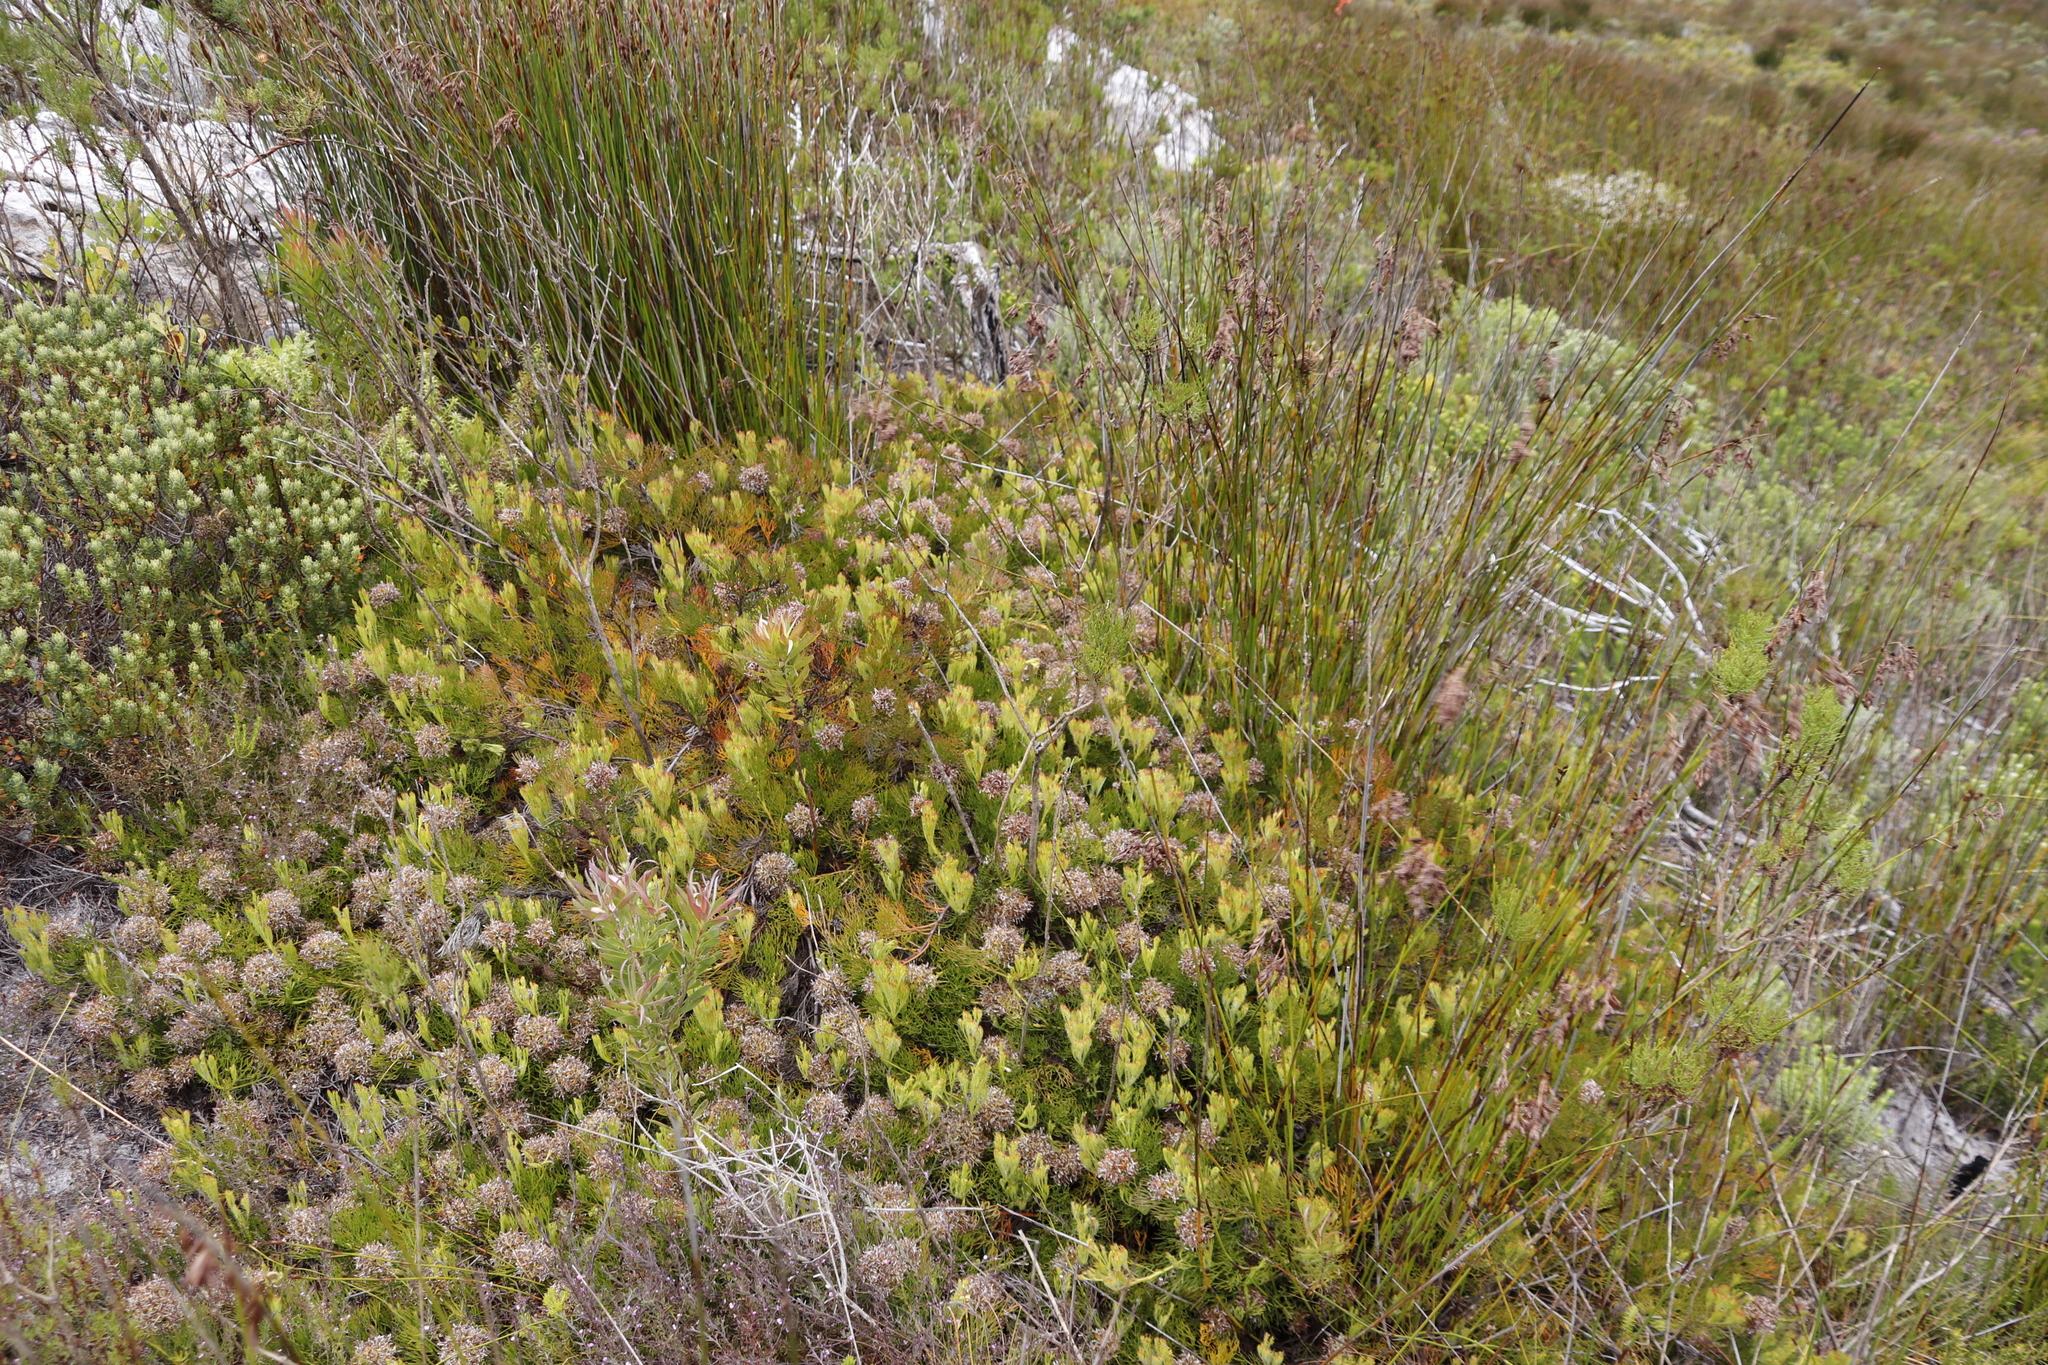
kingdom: Plantae
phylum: Tracheophyta
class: Magnoliopsida
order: Proteales
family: Proteaceae
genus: Serruria
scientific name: Serruria collina
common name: Lost spiderhead
